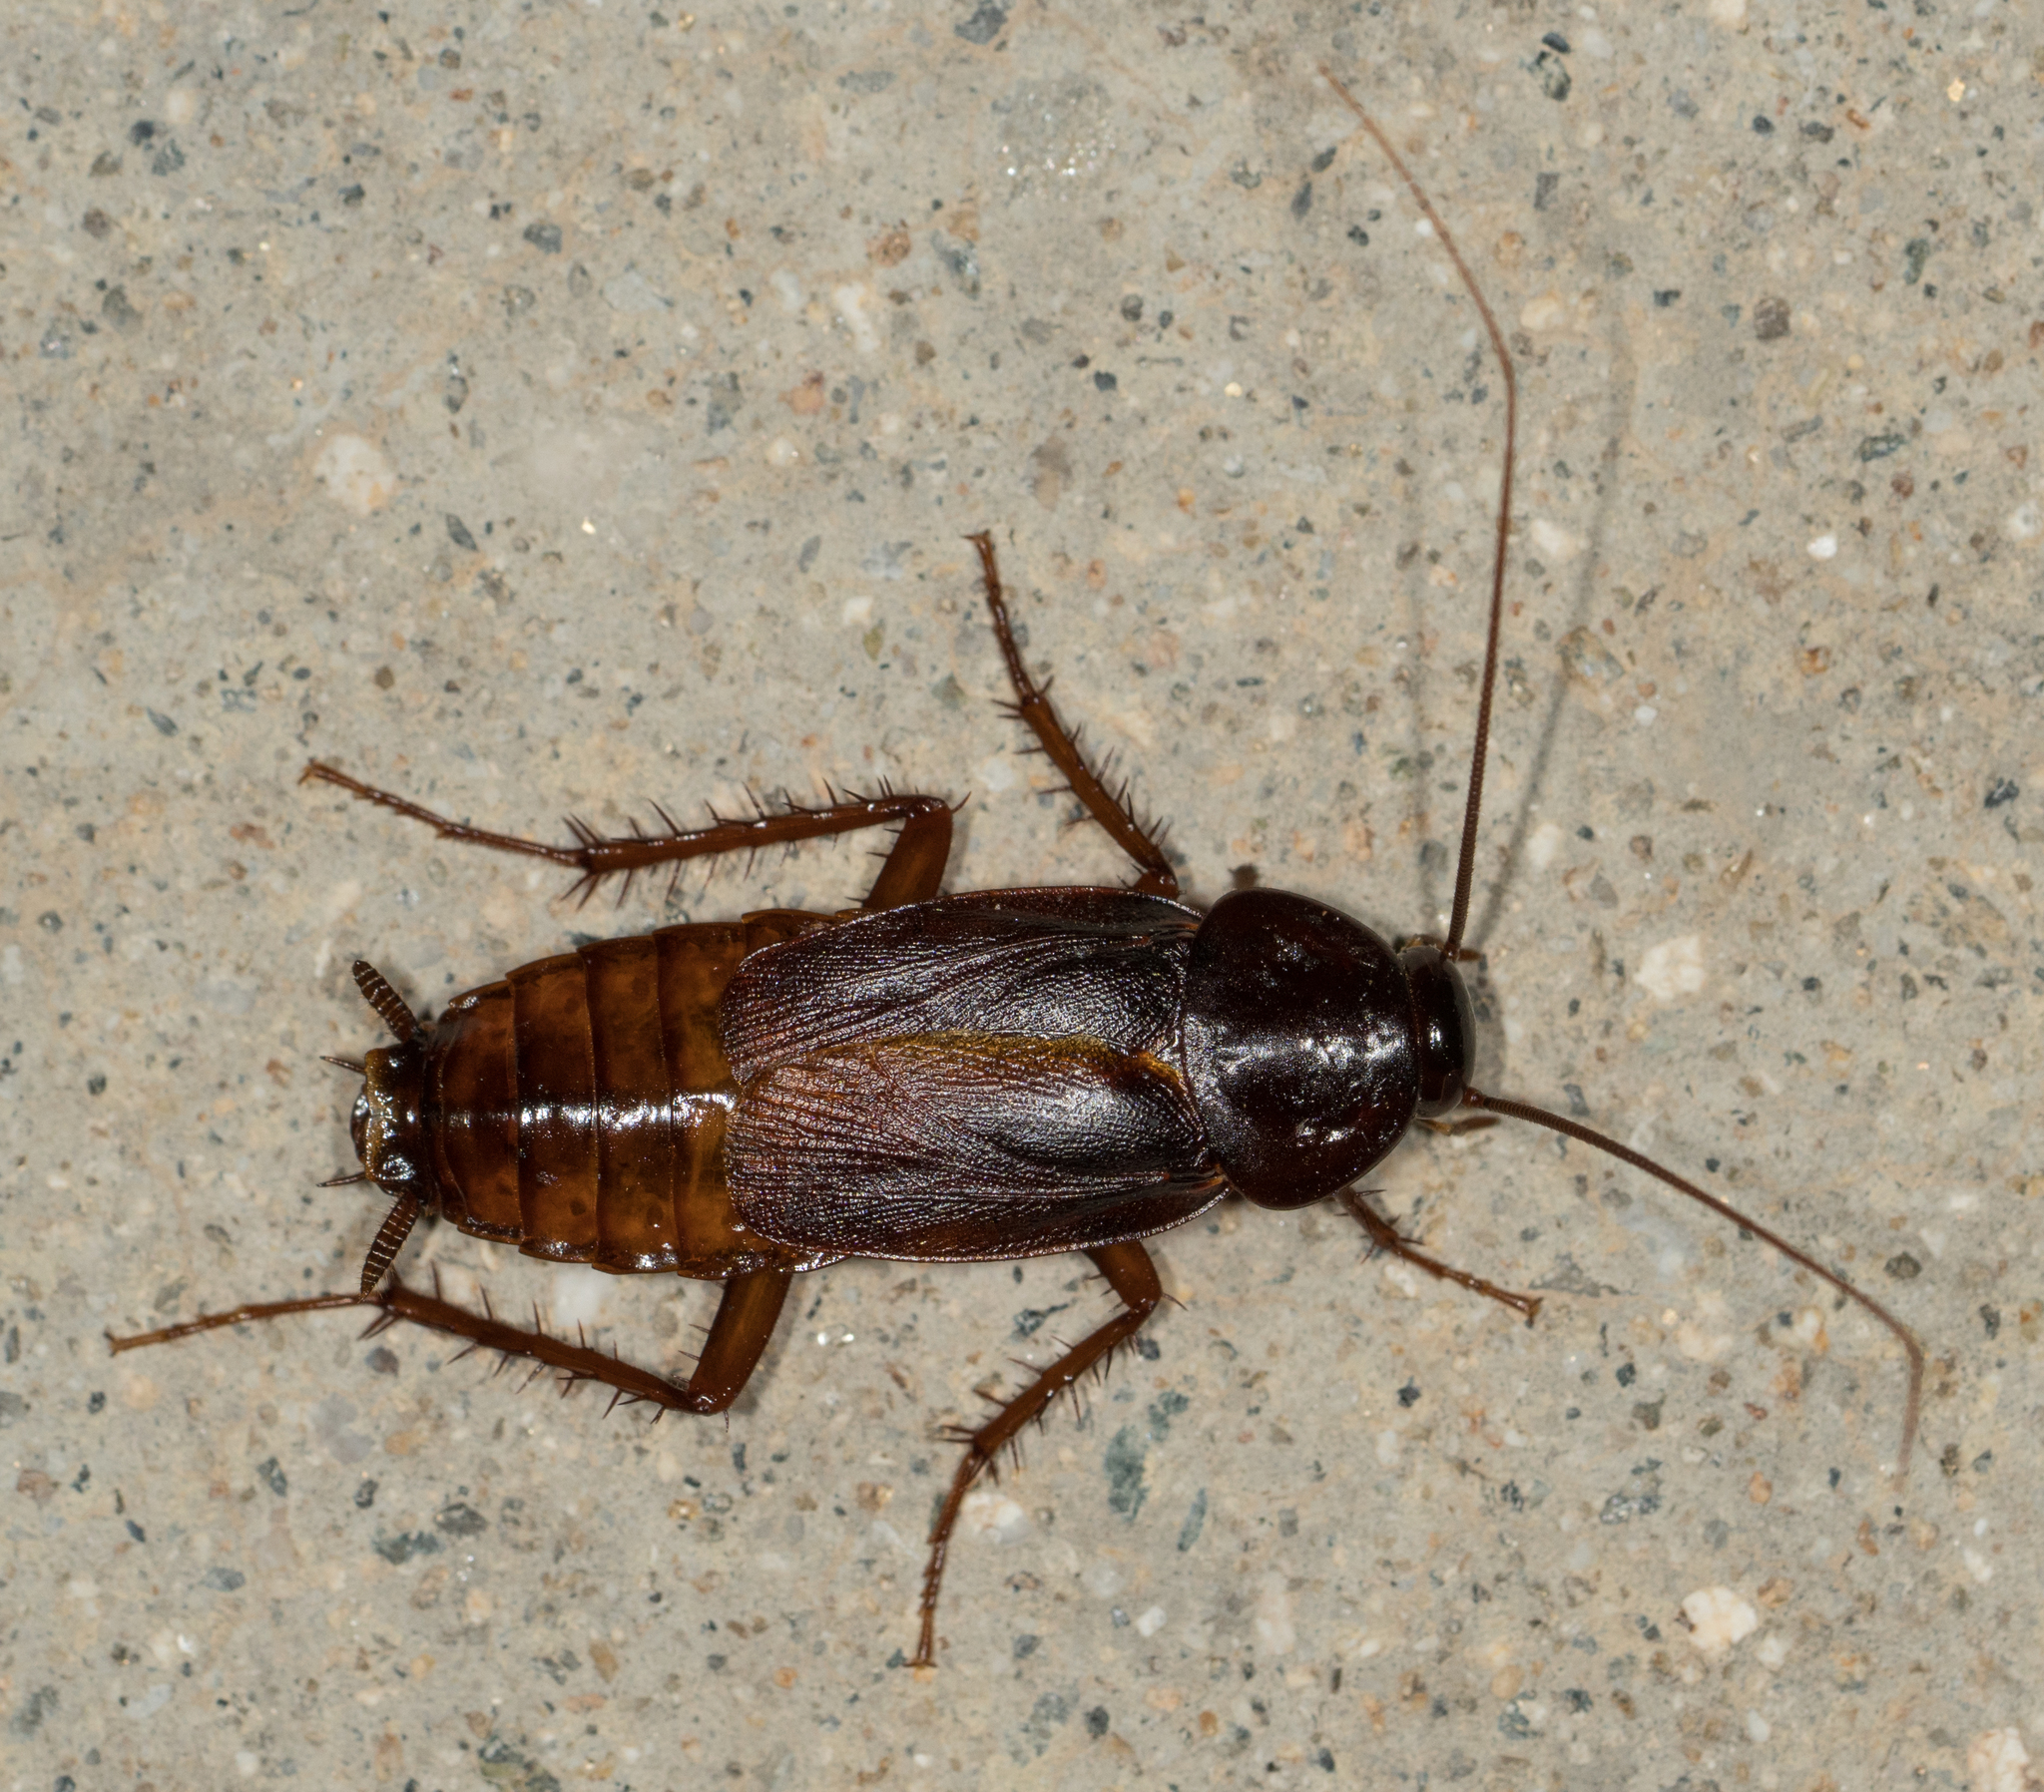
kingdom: Animalia
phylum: Arthropoda
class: Insecta
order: Blattodea
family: Blattidae
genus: Blatta
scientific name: Blatta orientalis
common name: Oriental cockroach
